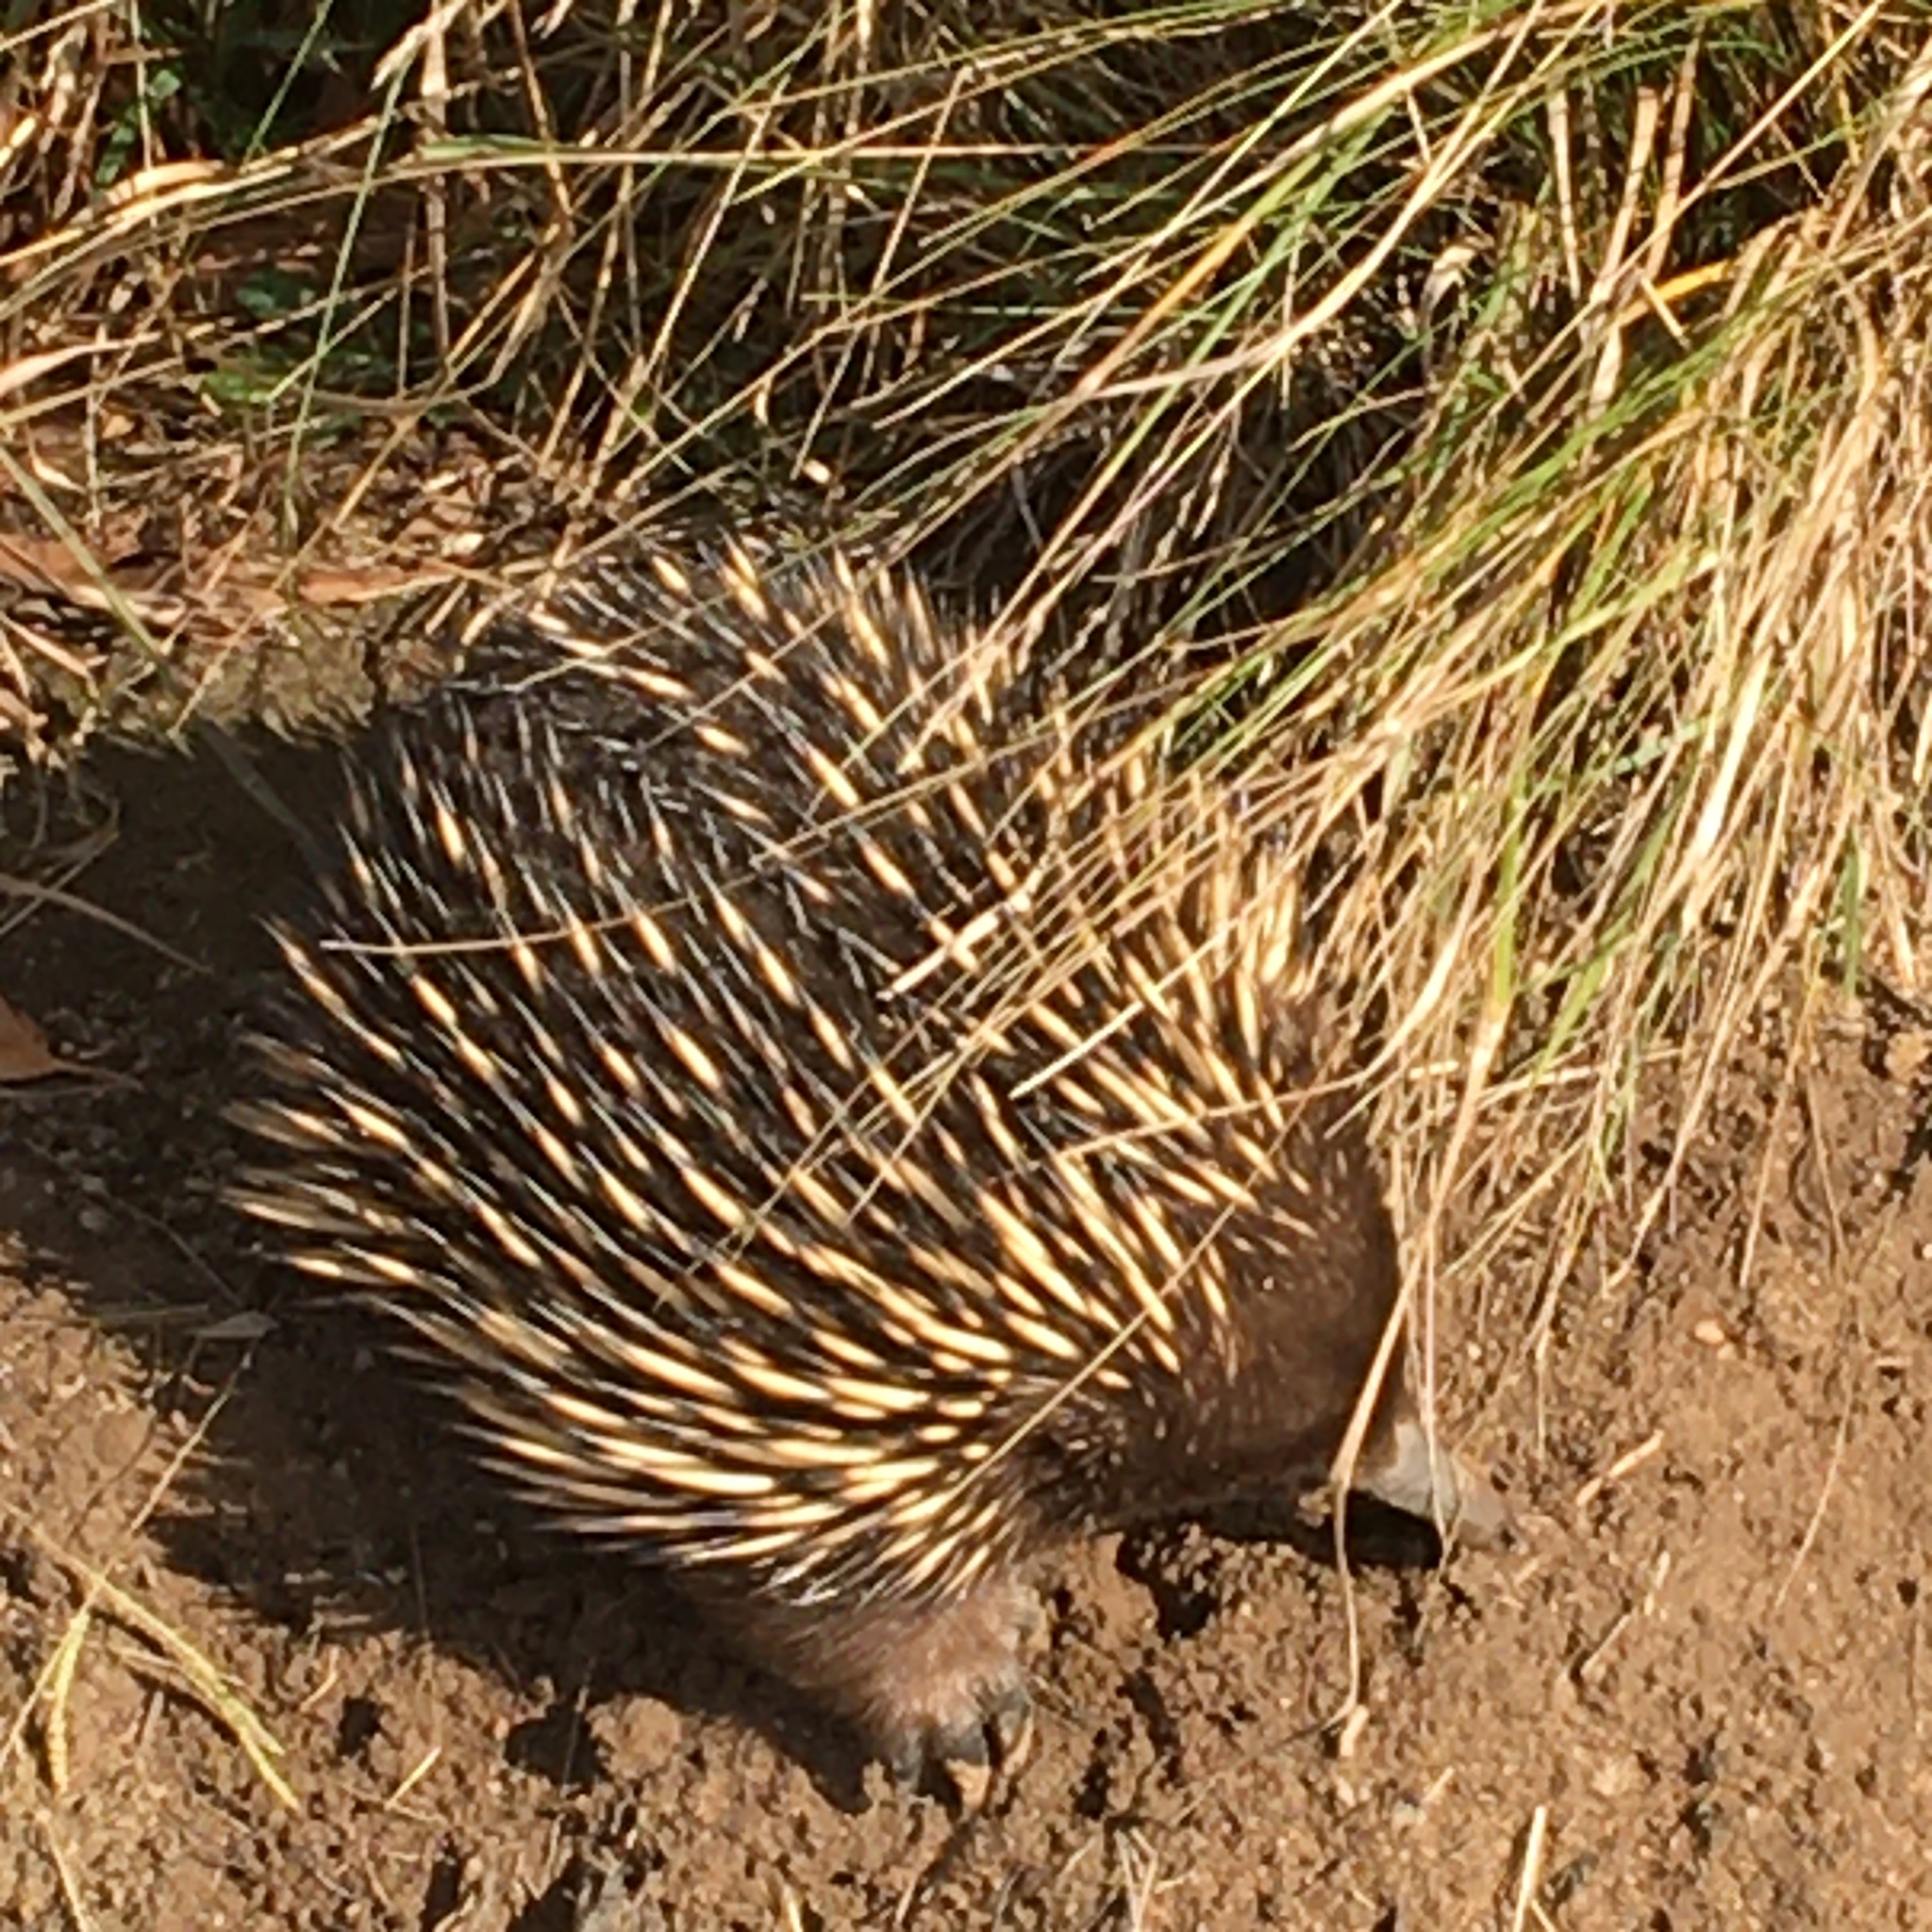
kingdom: Animalia
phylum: Chordata
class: Mammalia
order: Monotremata
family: Tachyglossidae
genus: Tachyglossus
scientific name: Tachyglossus aculeatus
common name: Short-beaked echidna
